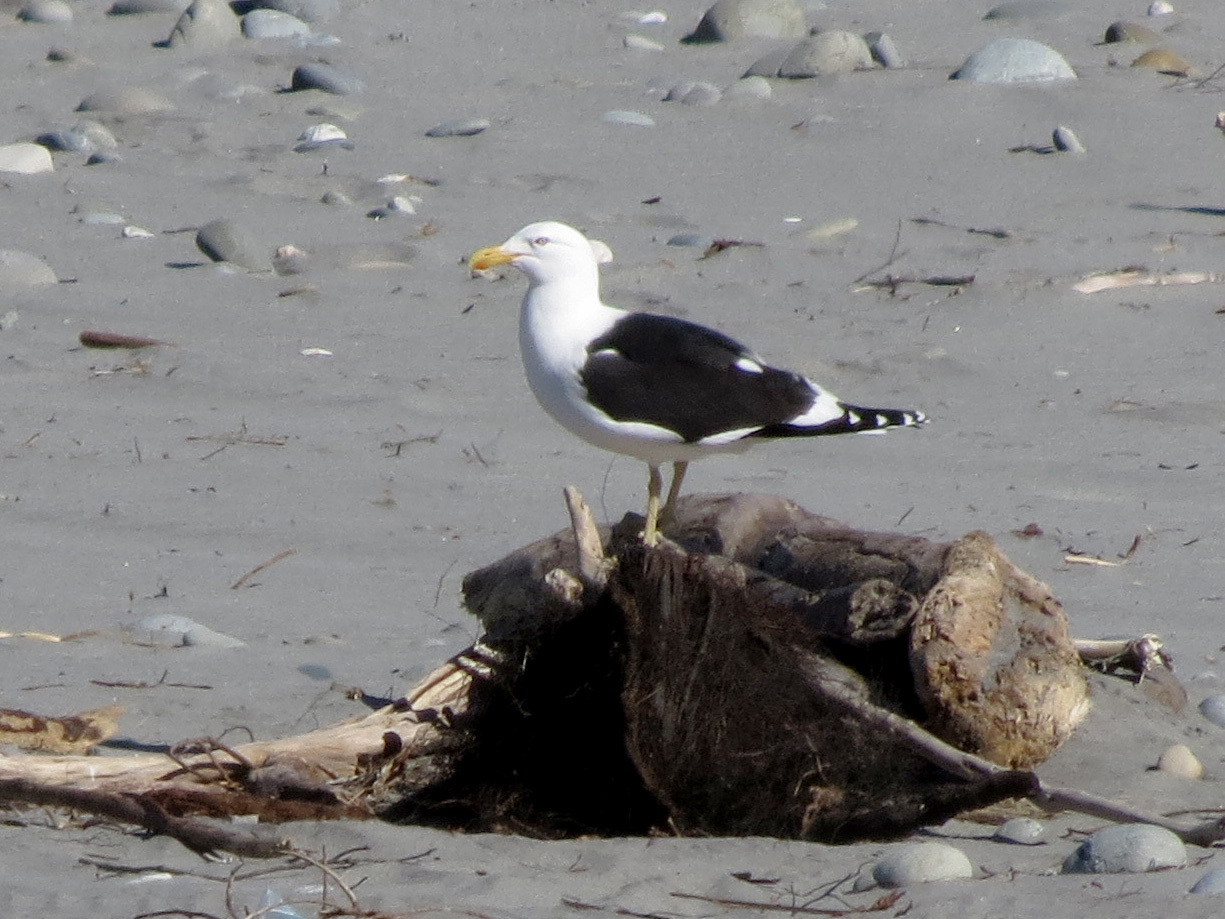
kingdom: Animalia
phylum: Chordata
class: Aves
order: Charadriiformes
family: Laridae
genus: Larus
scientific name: Larus dominicanus
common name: Kelp gull
